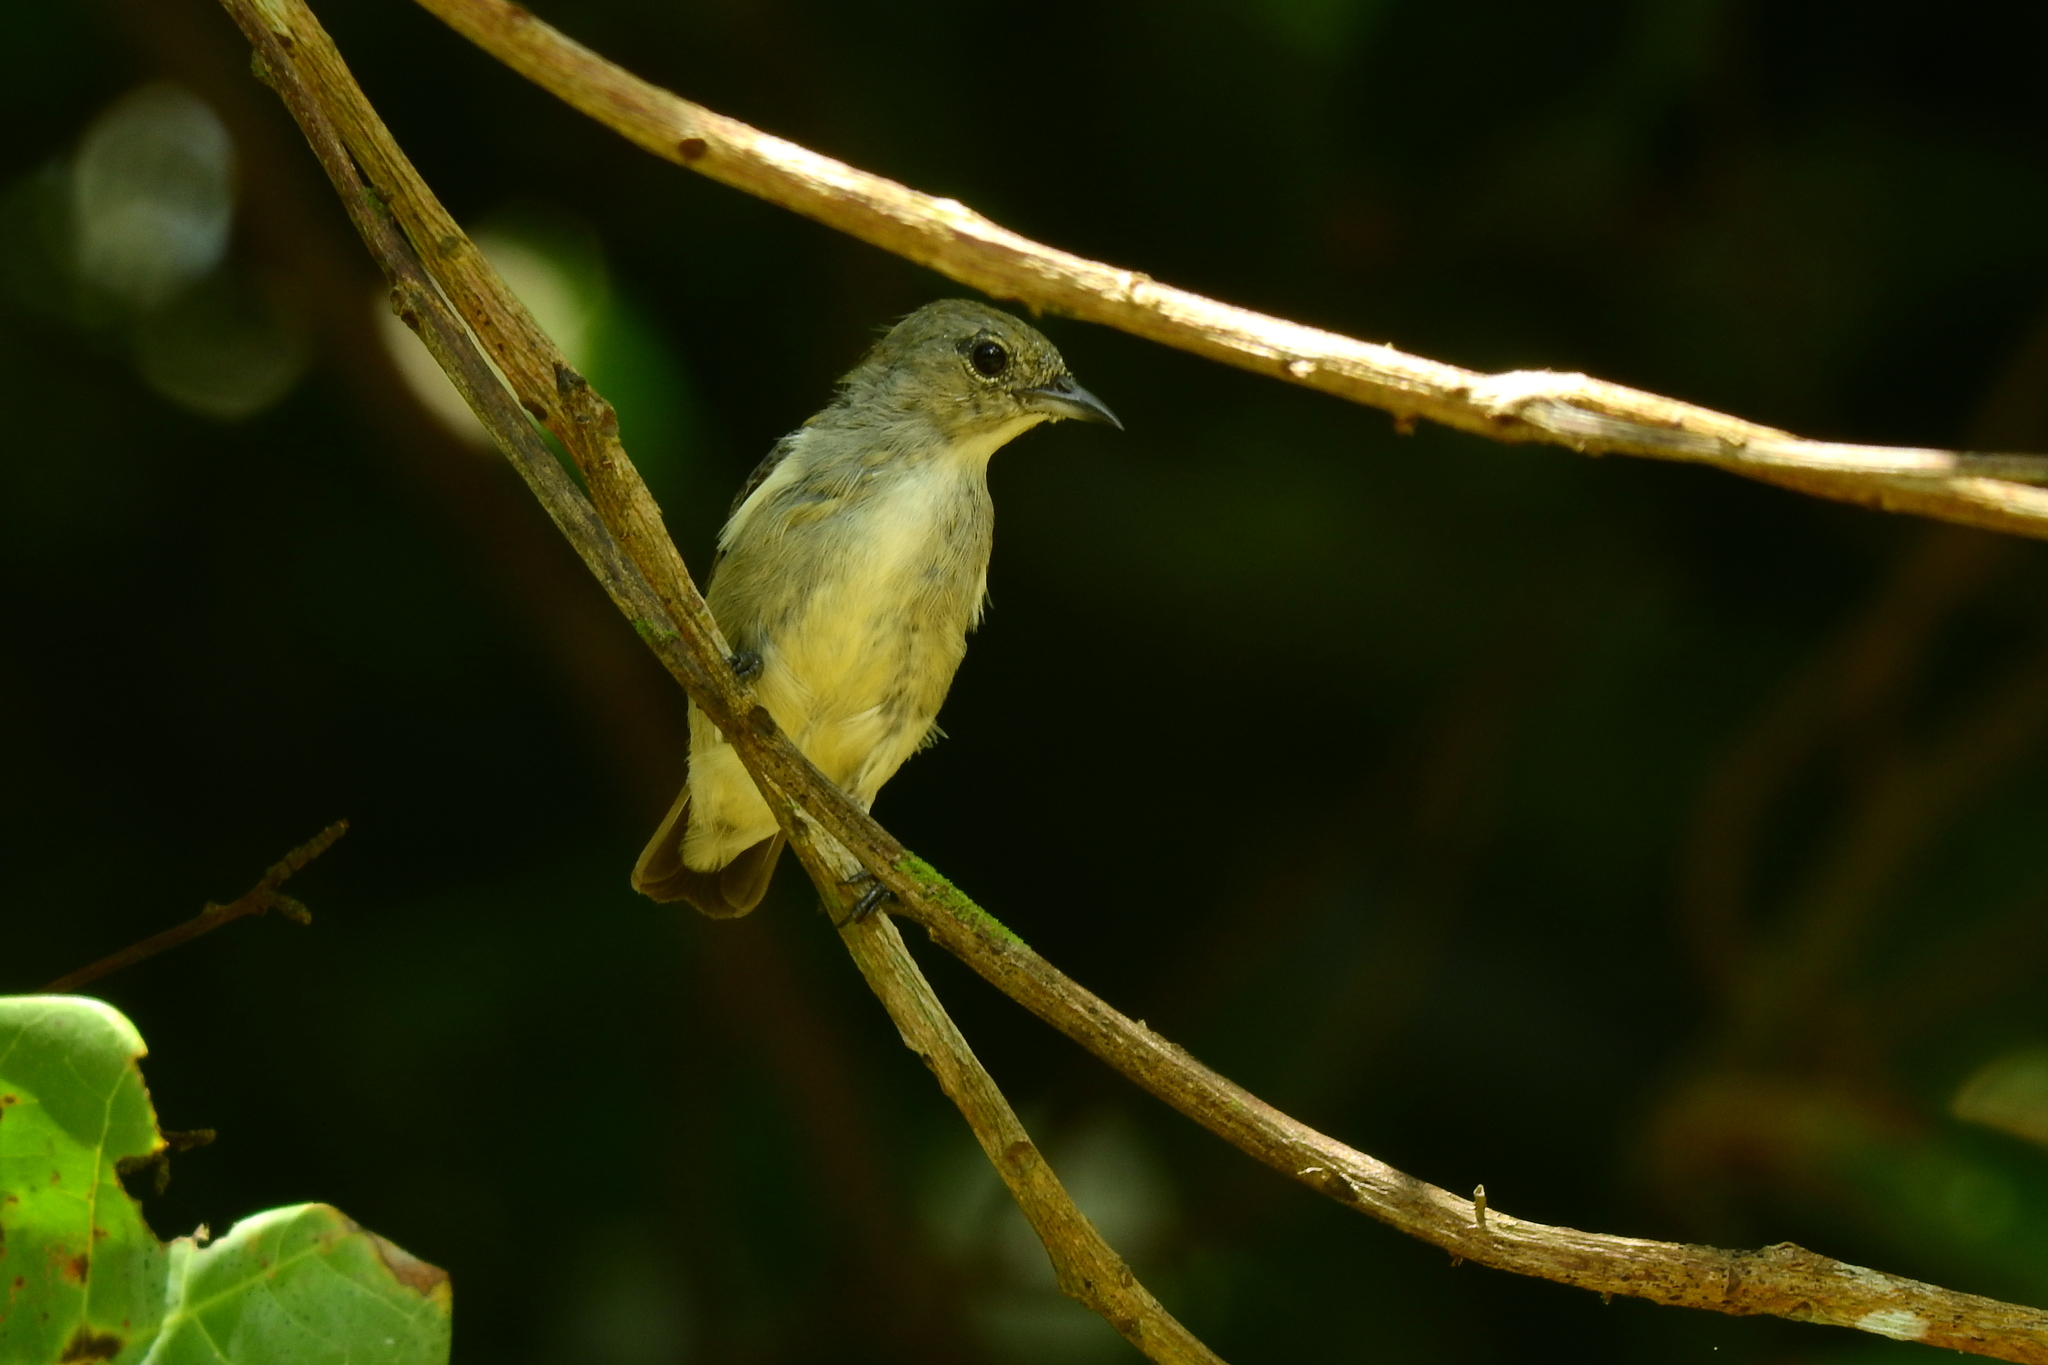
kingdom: Animalia
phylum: Chordata
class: Aves
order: Passeriformes
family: Dicaeidae
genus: Dicaeum
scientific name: Dicaeum minullum
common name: Plain flowerpecker
